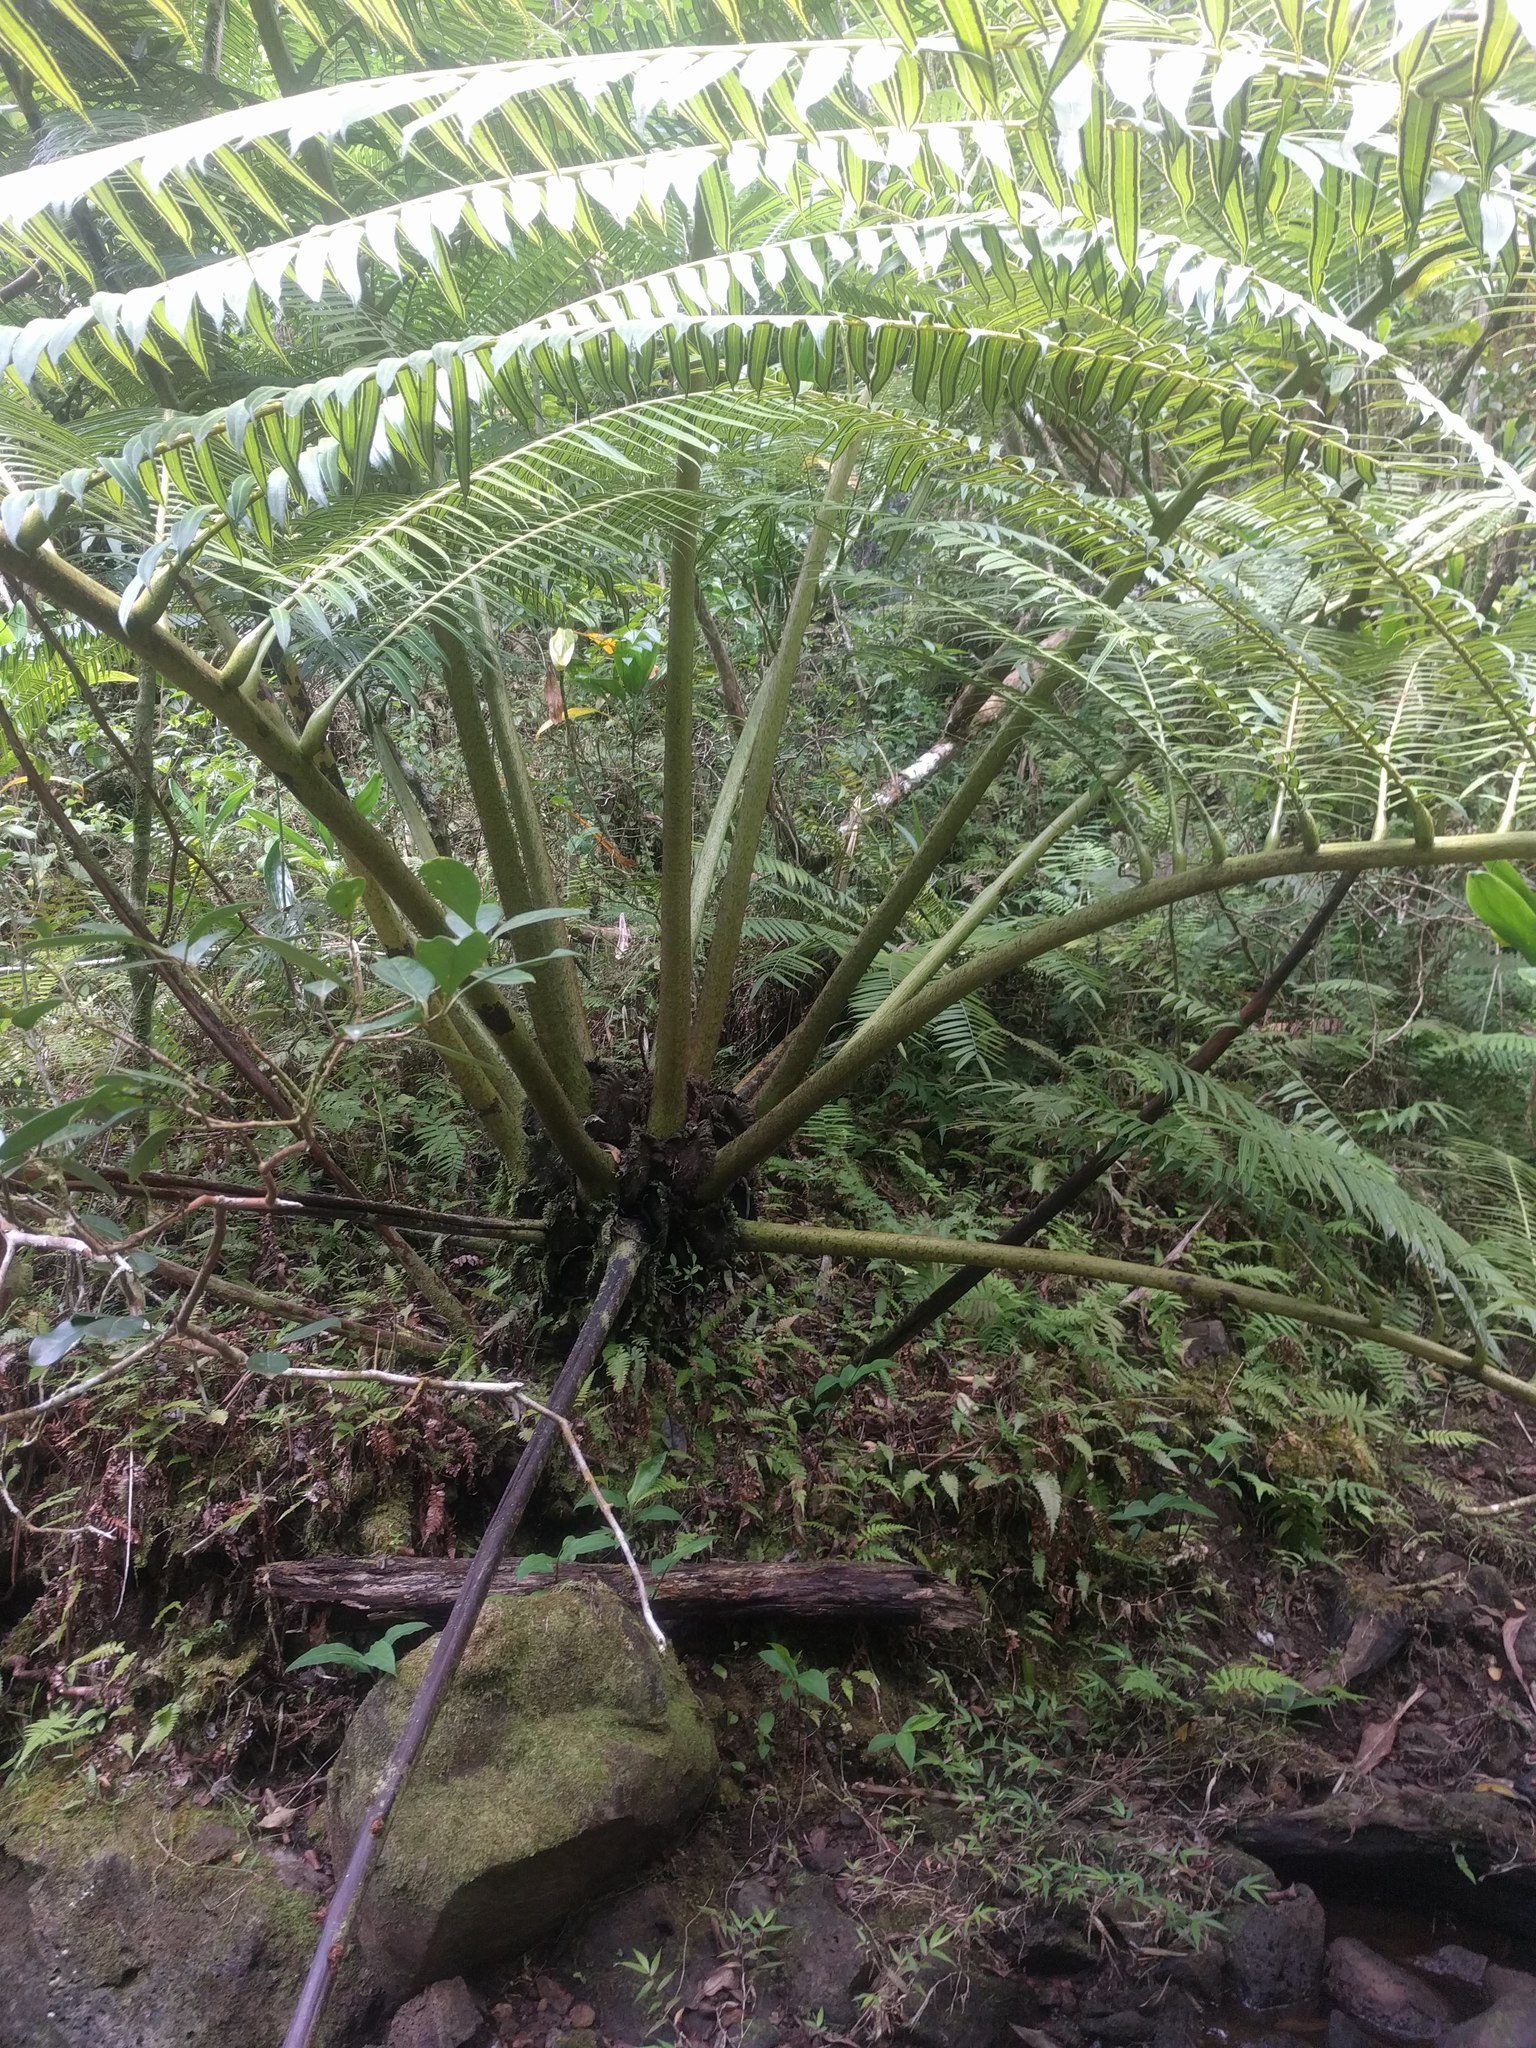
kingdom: Plantae
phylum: Tracheophyta
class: Polypodiopsida
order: Marattiales
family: Marattiaceae
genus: Angiopteris
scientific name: Angiopteris evecta
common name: Mule's-foot fern
